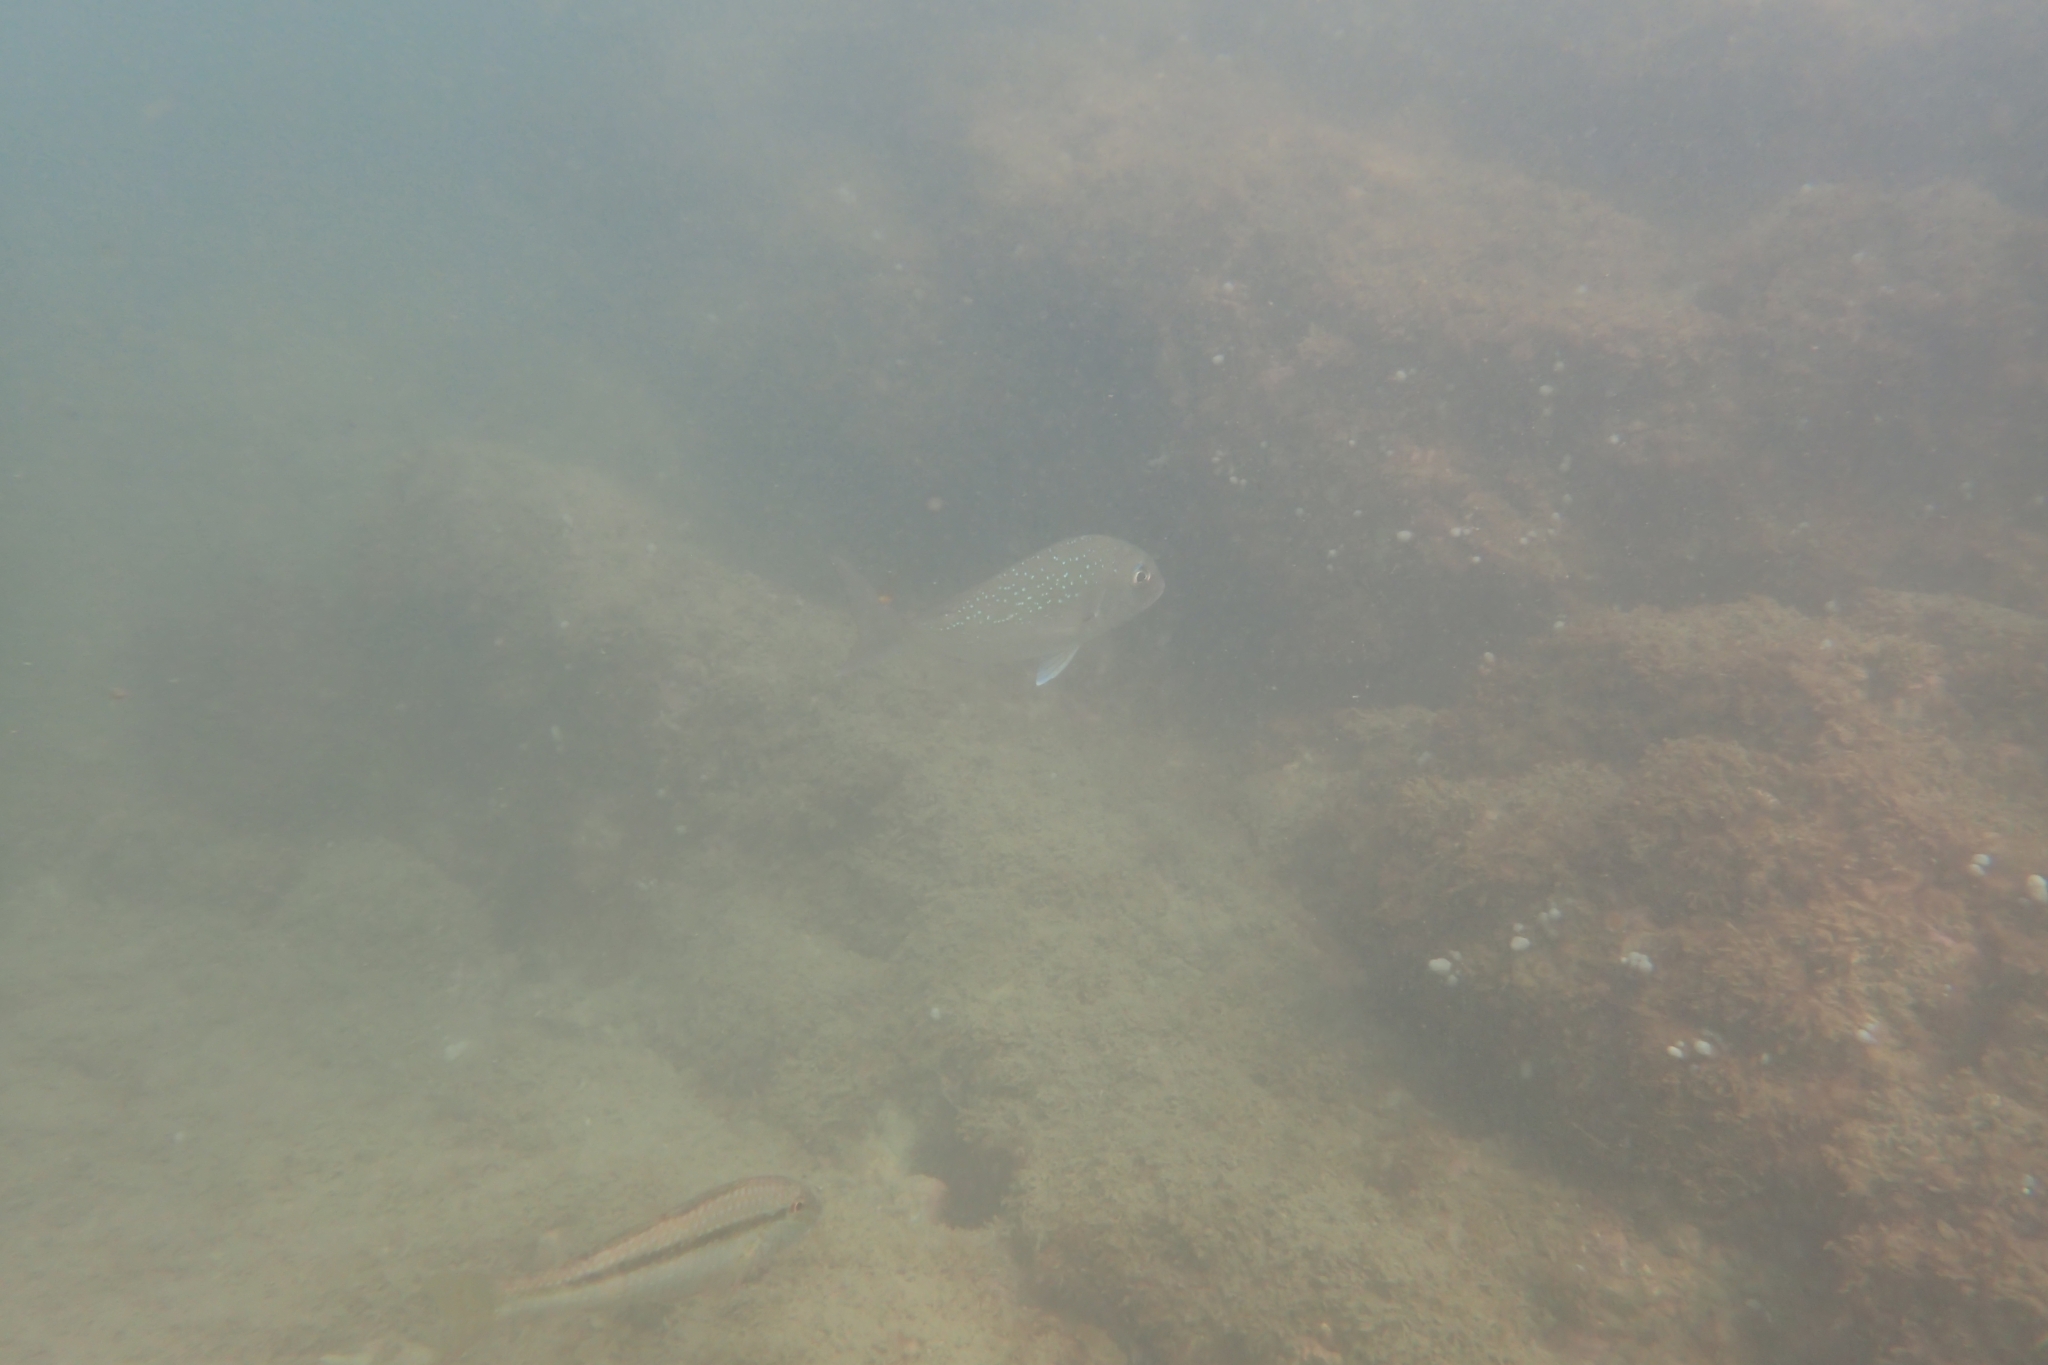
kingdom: Animalia
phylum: Chordata
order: Perciformes
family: Sparidae
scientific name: Sparidae
